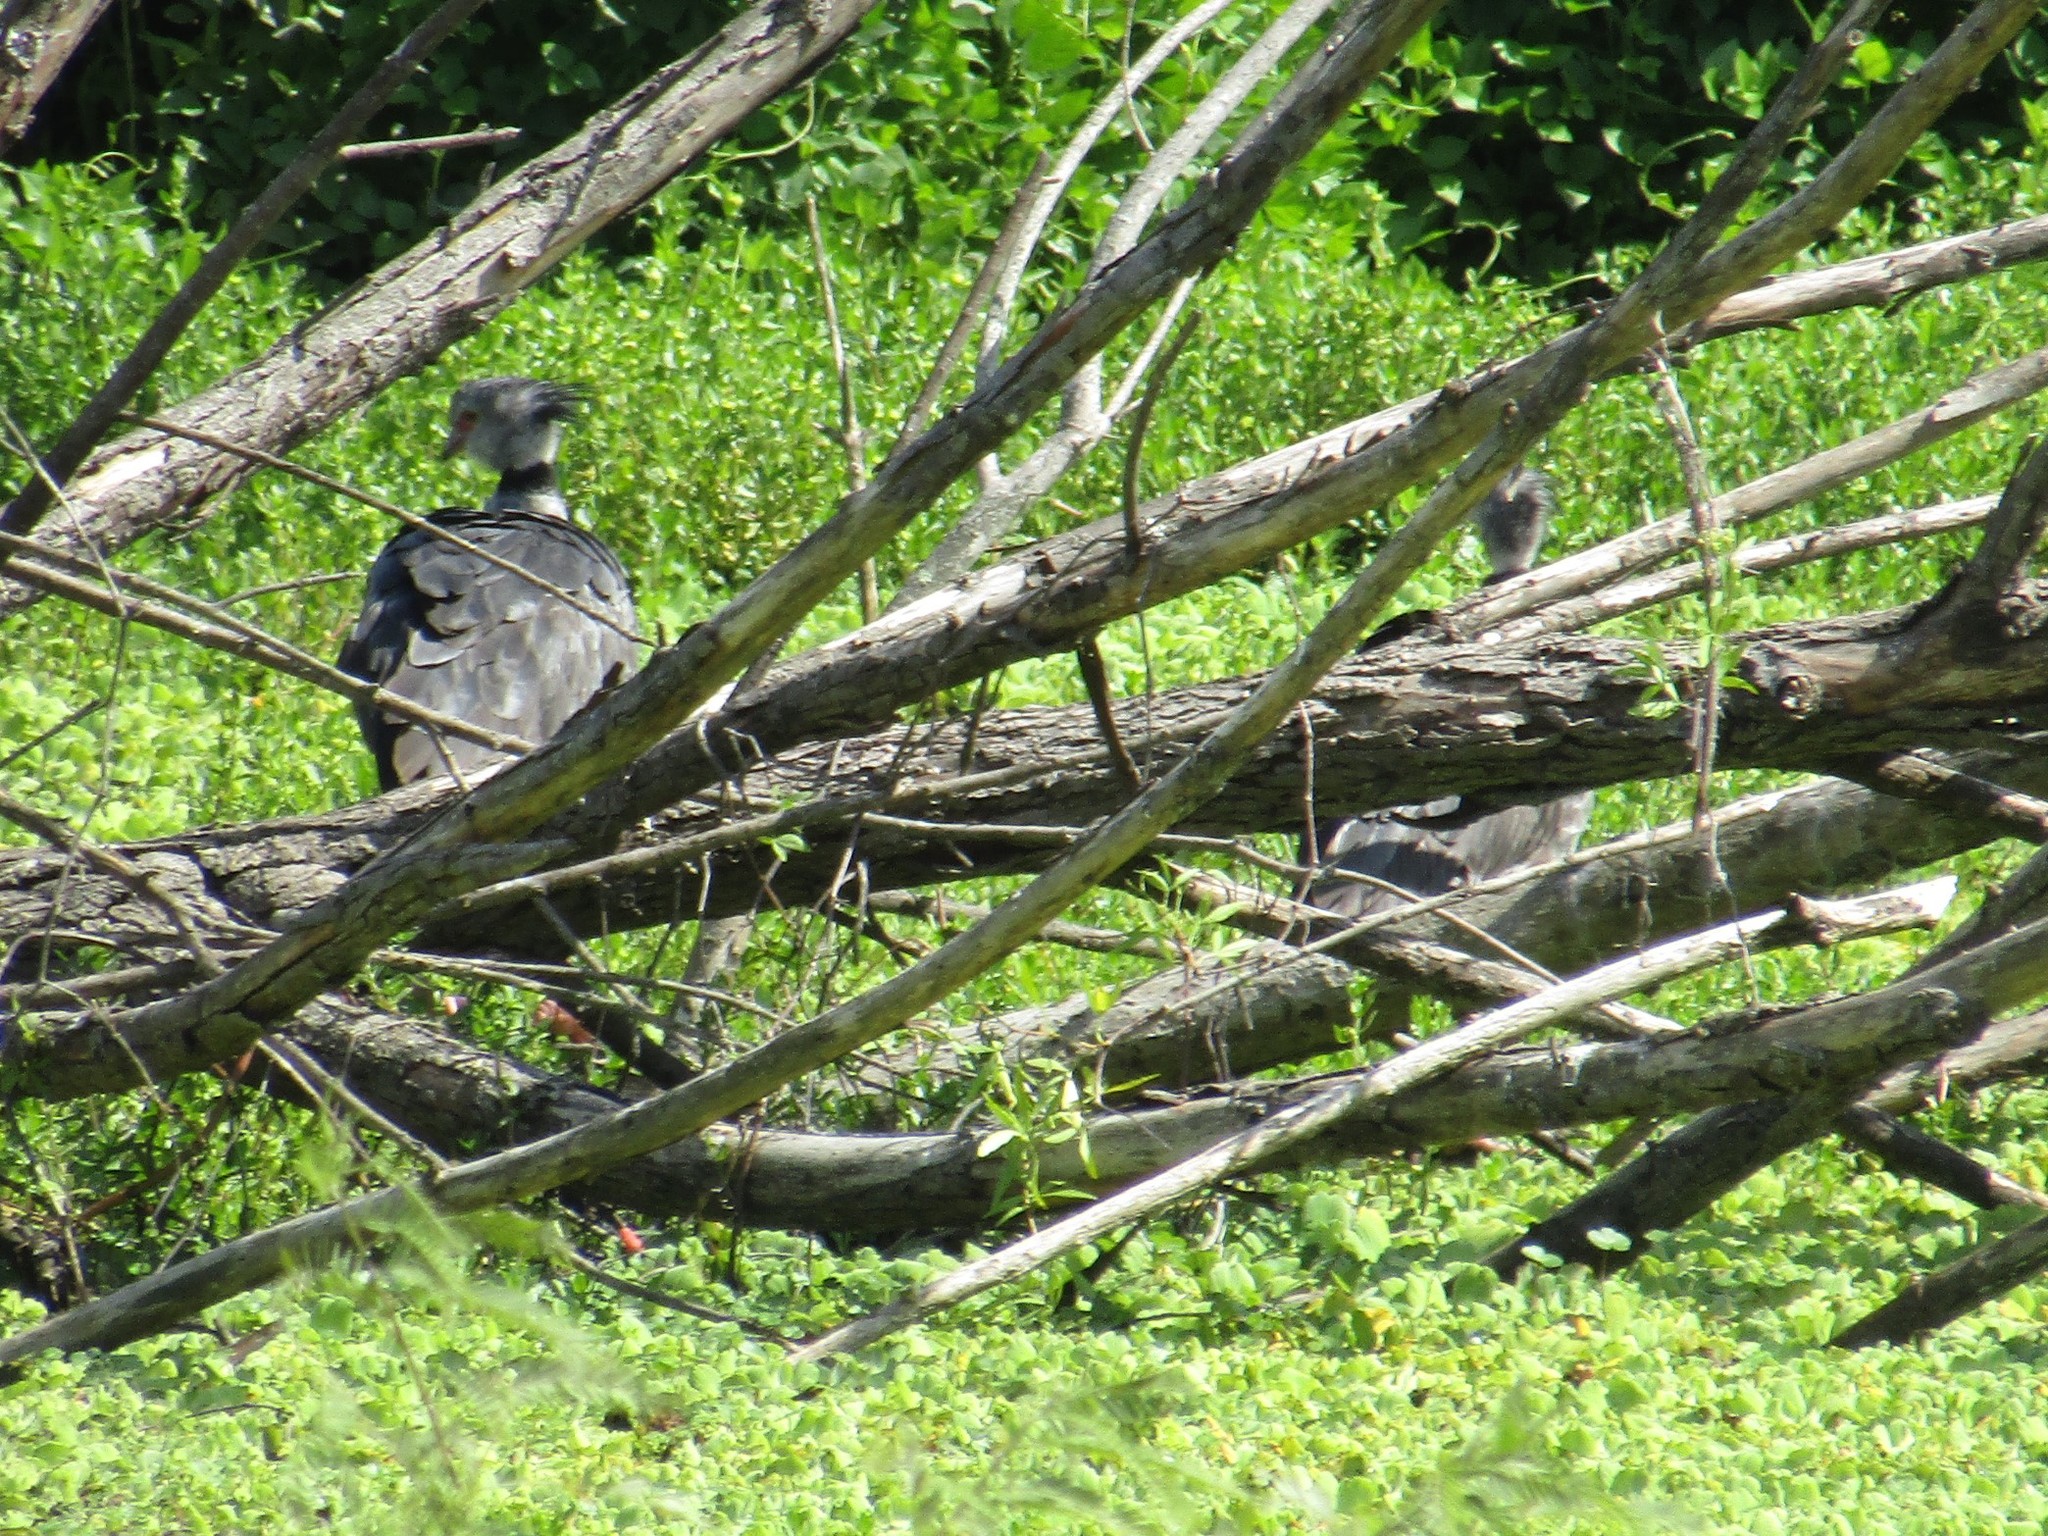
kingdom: Animalia
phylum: Chordata
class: Aves
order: Anseriformes
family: Anhimidae
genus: Chauna
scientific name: Chauna torquata
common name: Southern screamer
